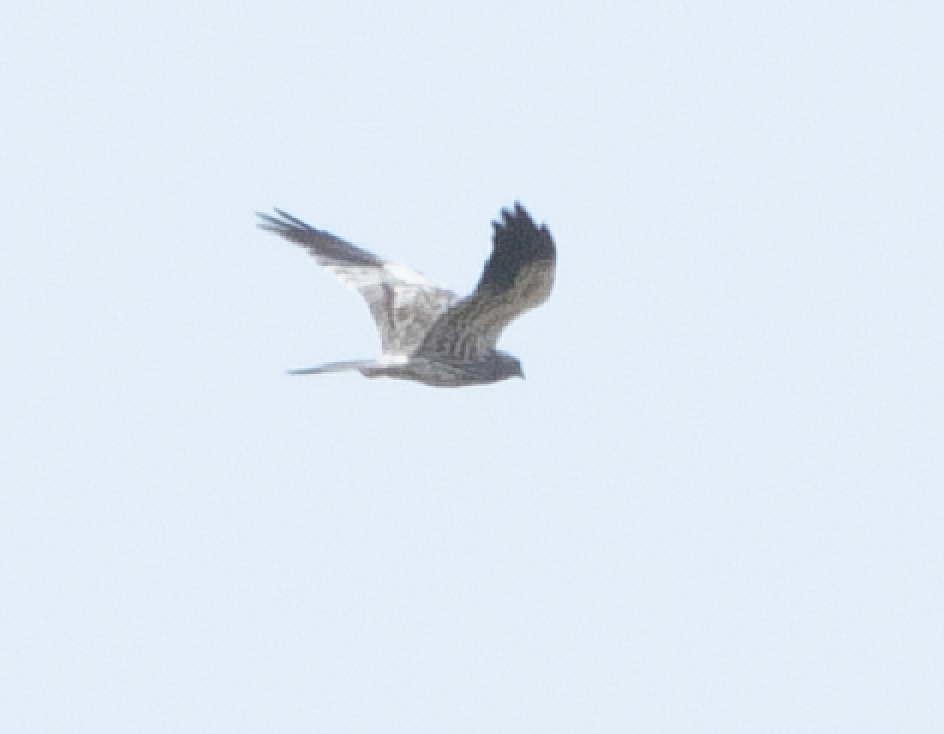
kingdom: Animalia
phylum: Chordata
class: Aves
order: Accipitriformes
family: Accipitridae
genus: Circus
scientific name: Circus pygargus
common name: Montagu's harrier
